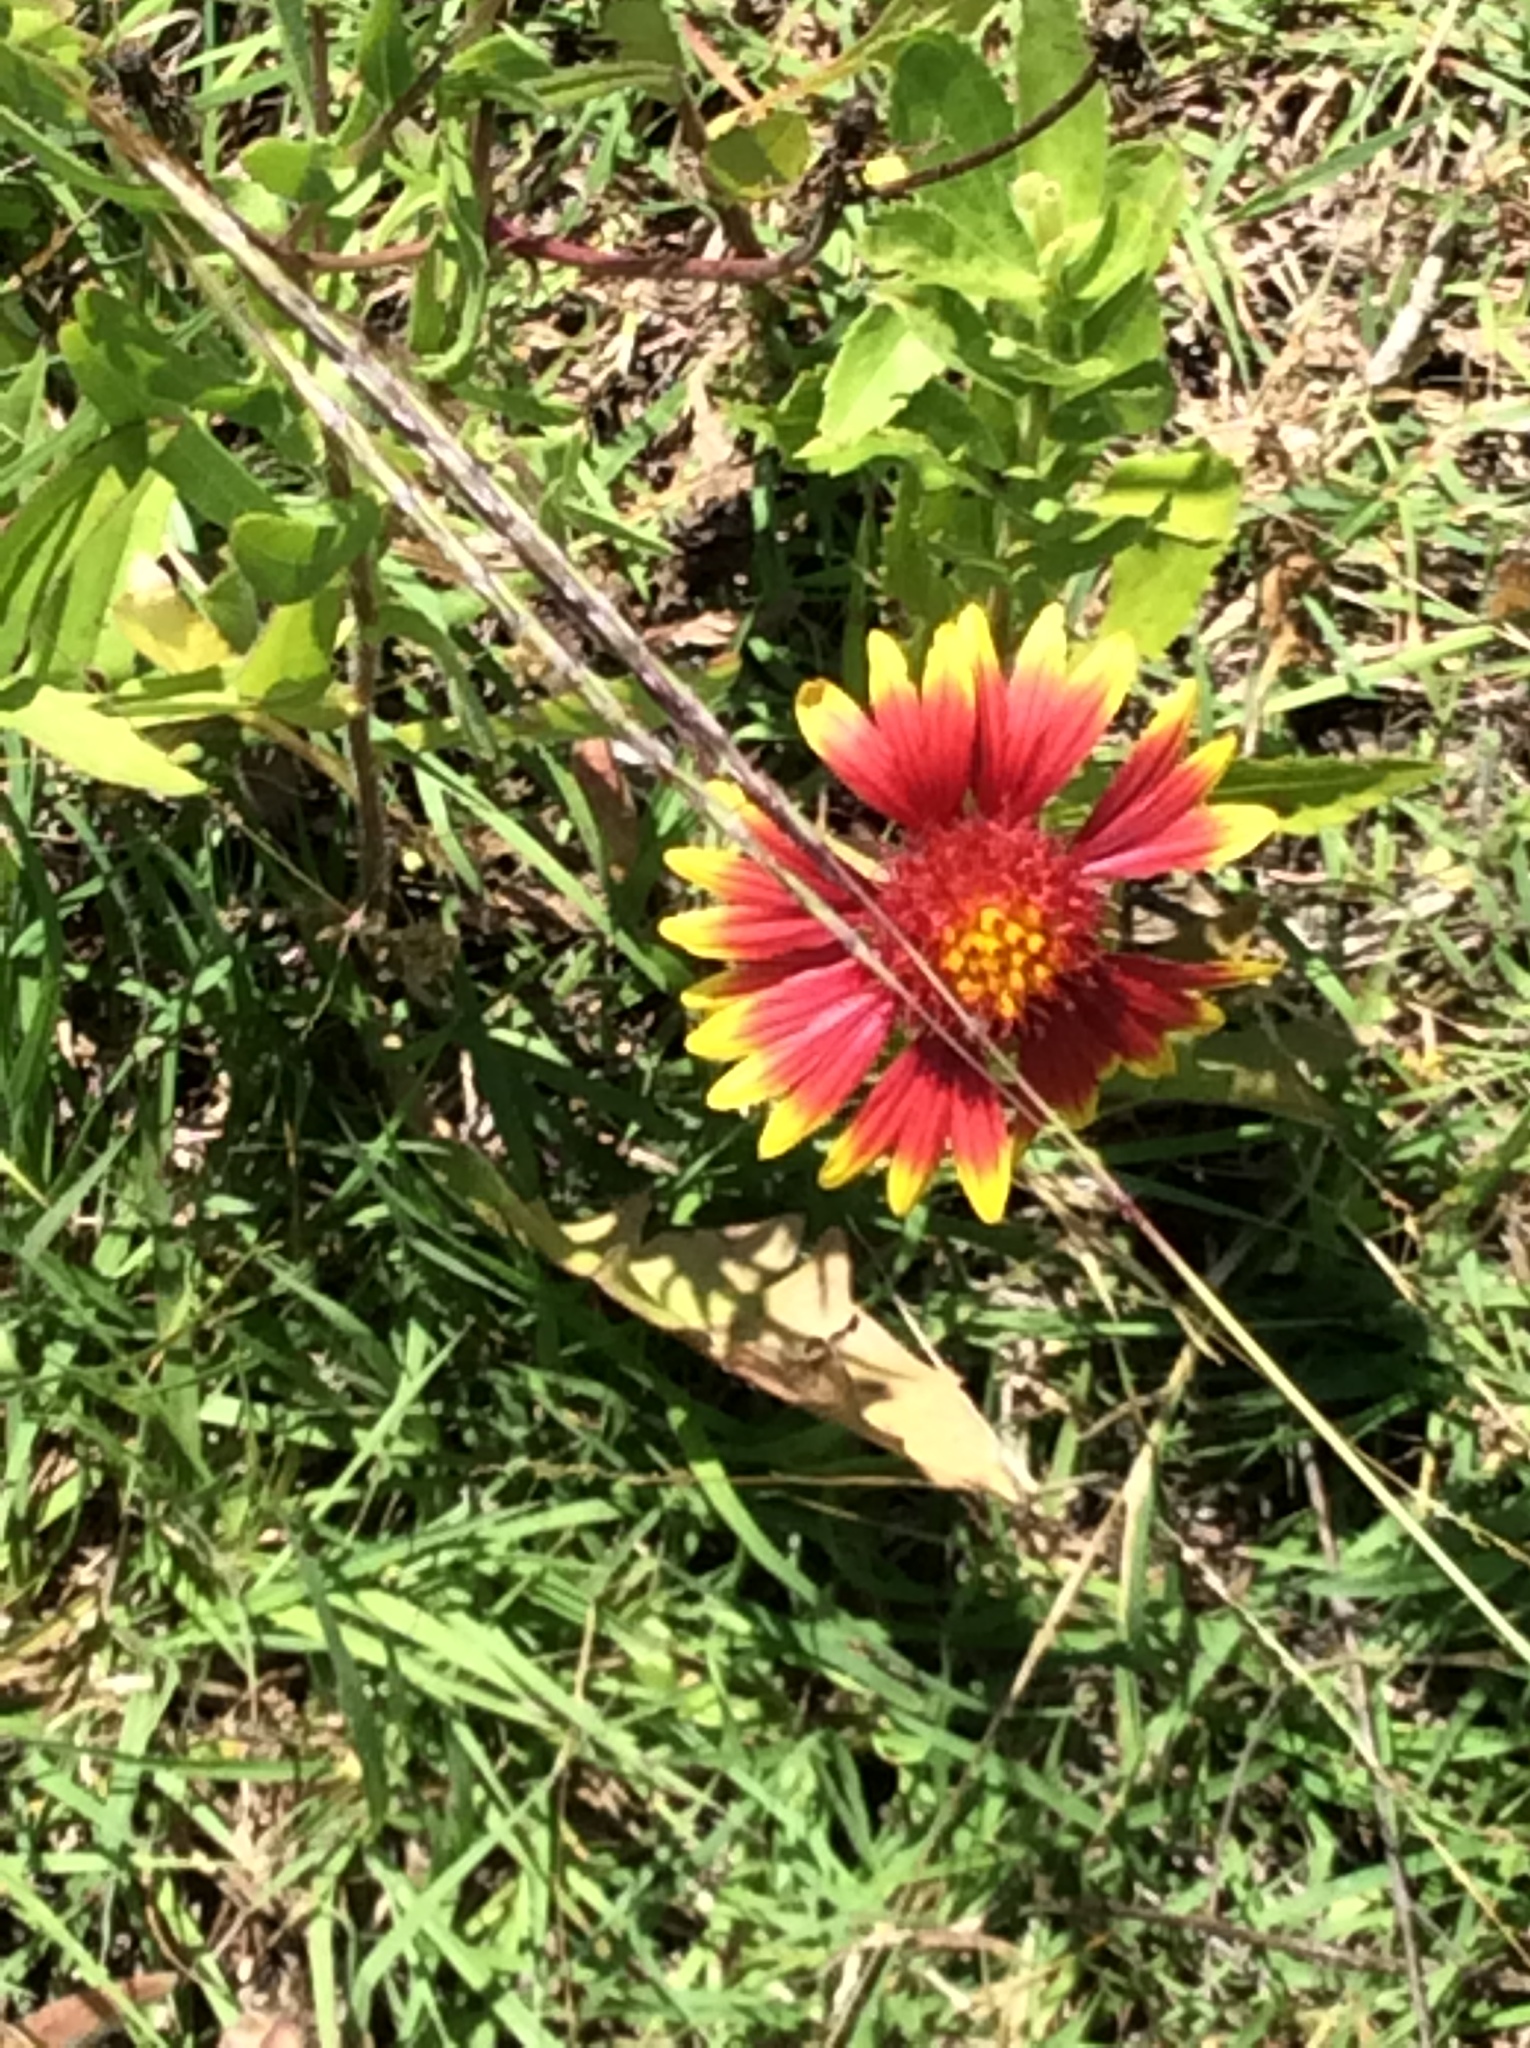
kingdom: Plantae
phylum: Tracheophyta
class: Magnoliopsida
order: Asterales
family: Asteraceae
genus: Gaillardia
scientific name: Gaillardia pulchella
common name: Firewheel
